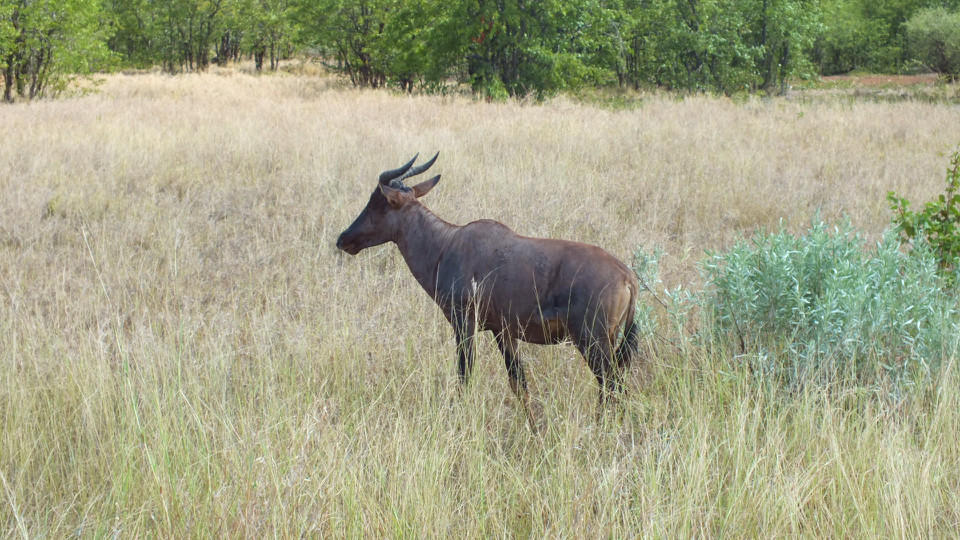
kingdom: Animalia
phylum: Chordata
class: Mammalia
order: Artiodactyla
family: Bovidae
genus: Damaliscus
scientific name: Damaliscus lunatus
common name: Common tsessebe
